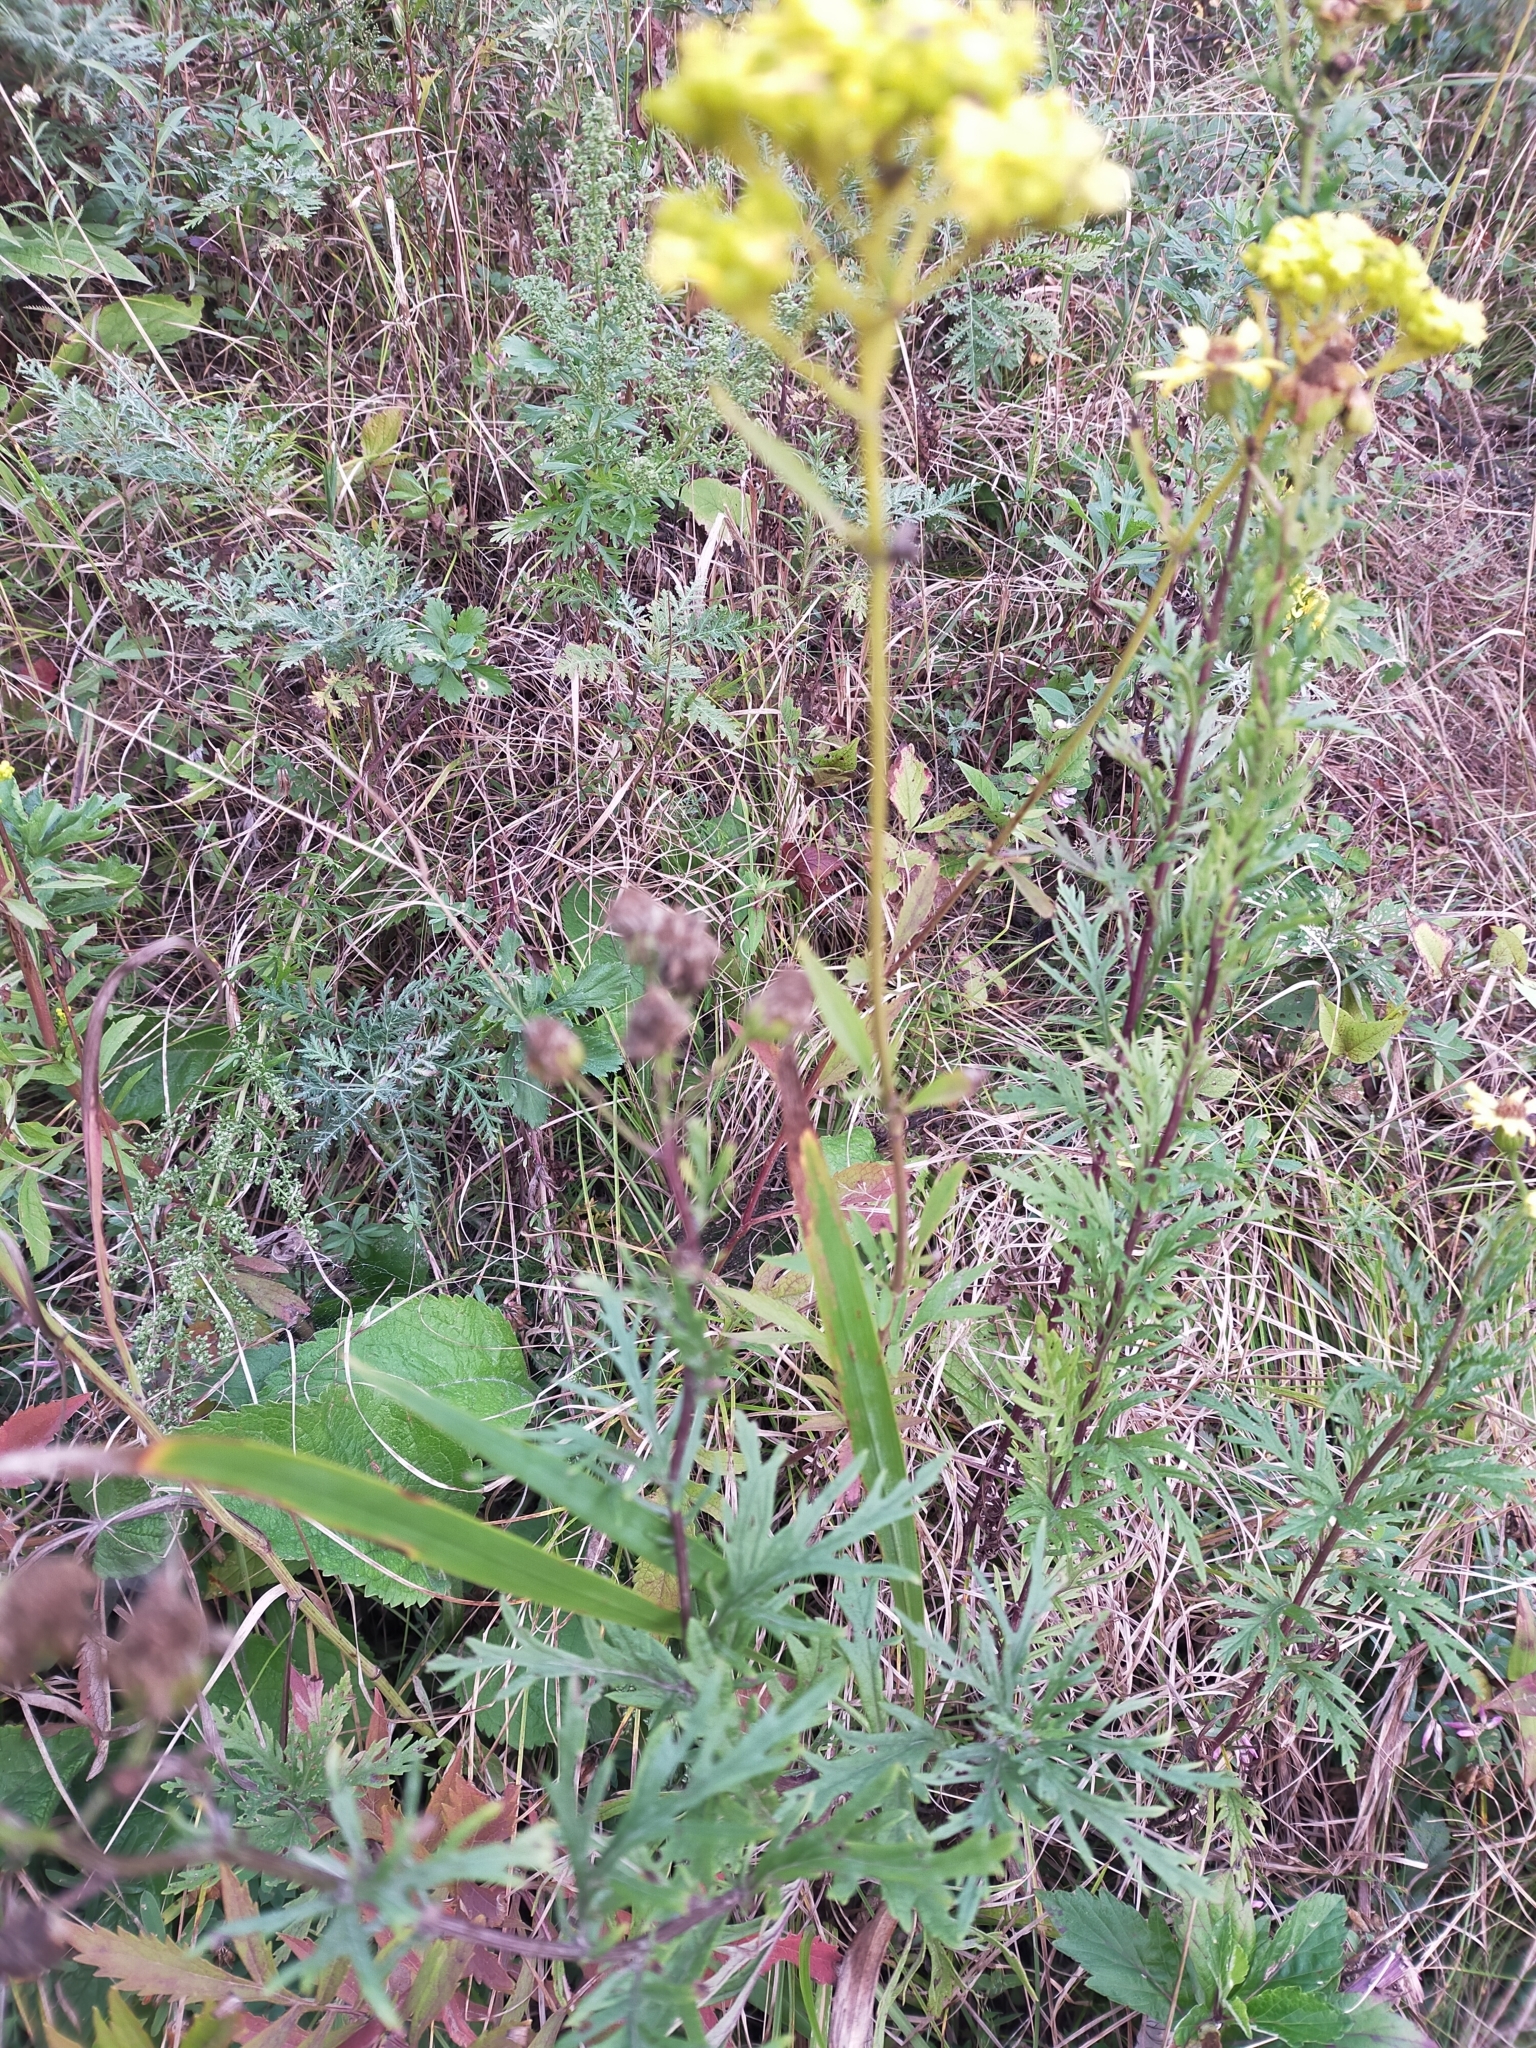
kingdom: Plantae
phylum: Tracheophyta
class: Magnoliopsida
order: Dipsacales
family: Caprifoliaceae
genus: Patrinia
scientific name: Patrinia scabiosifolia
